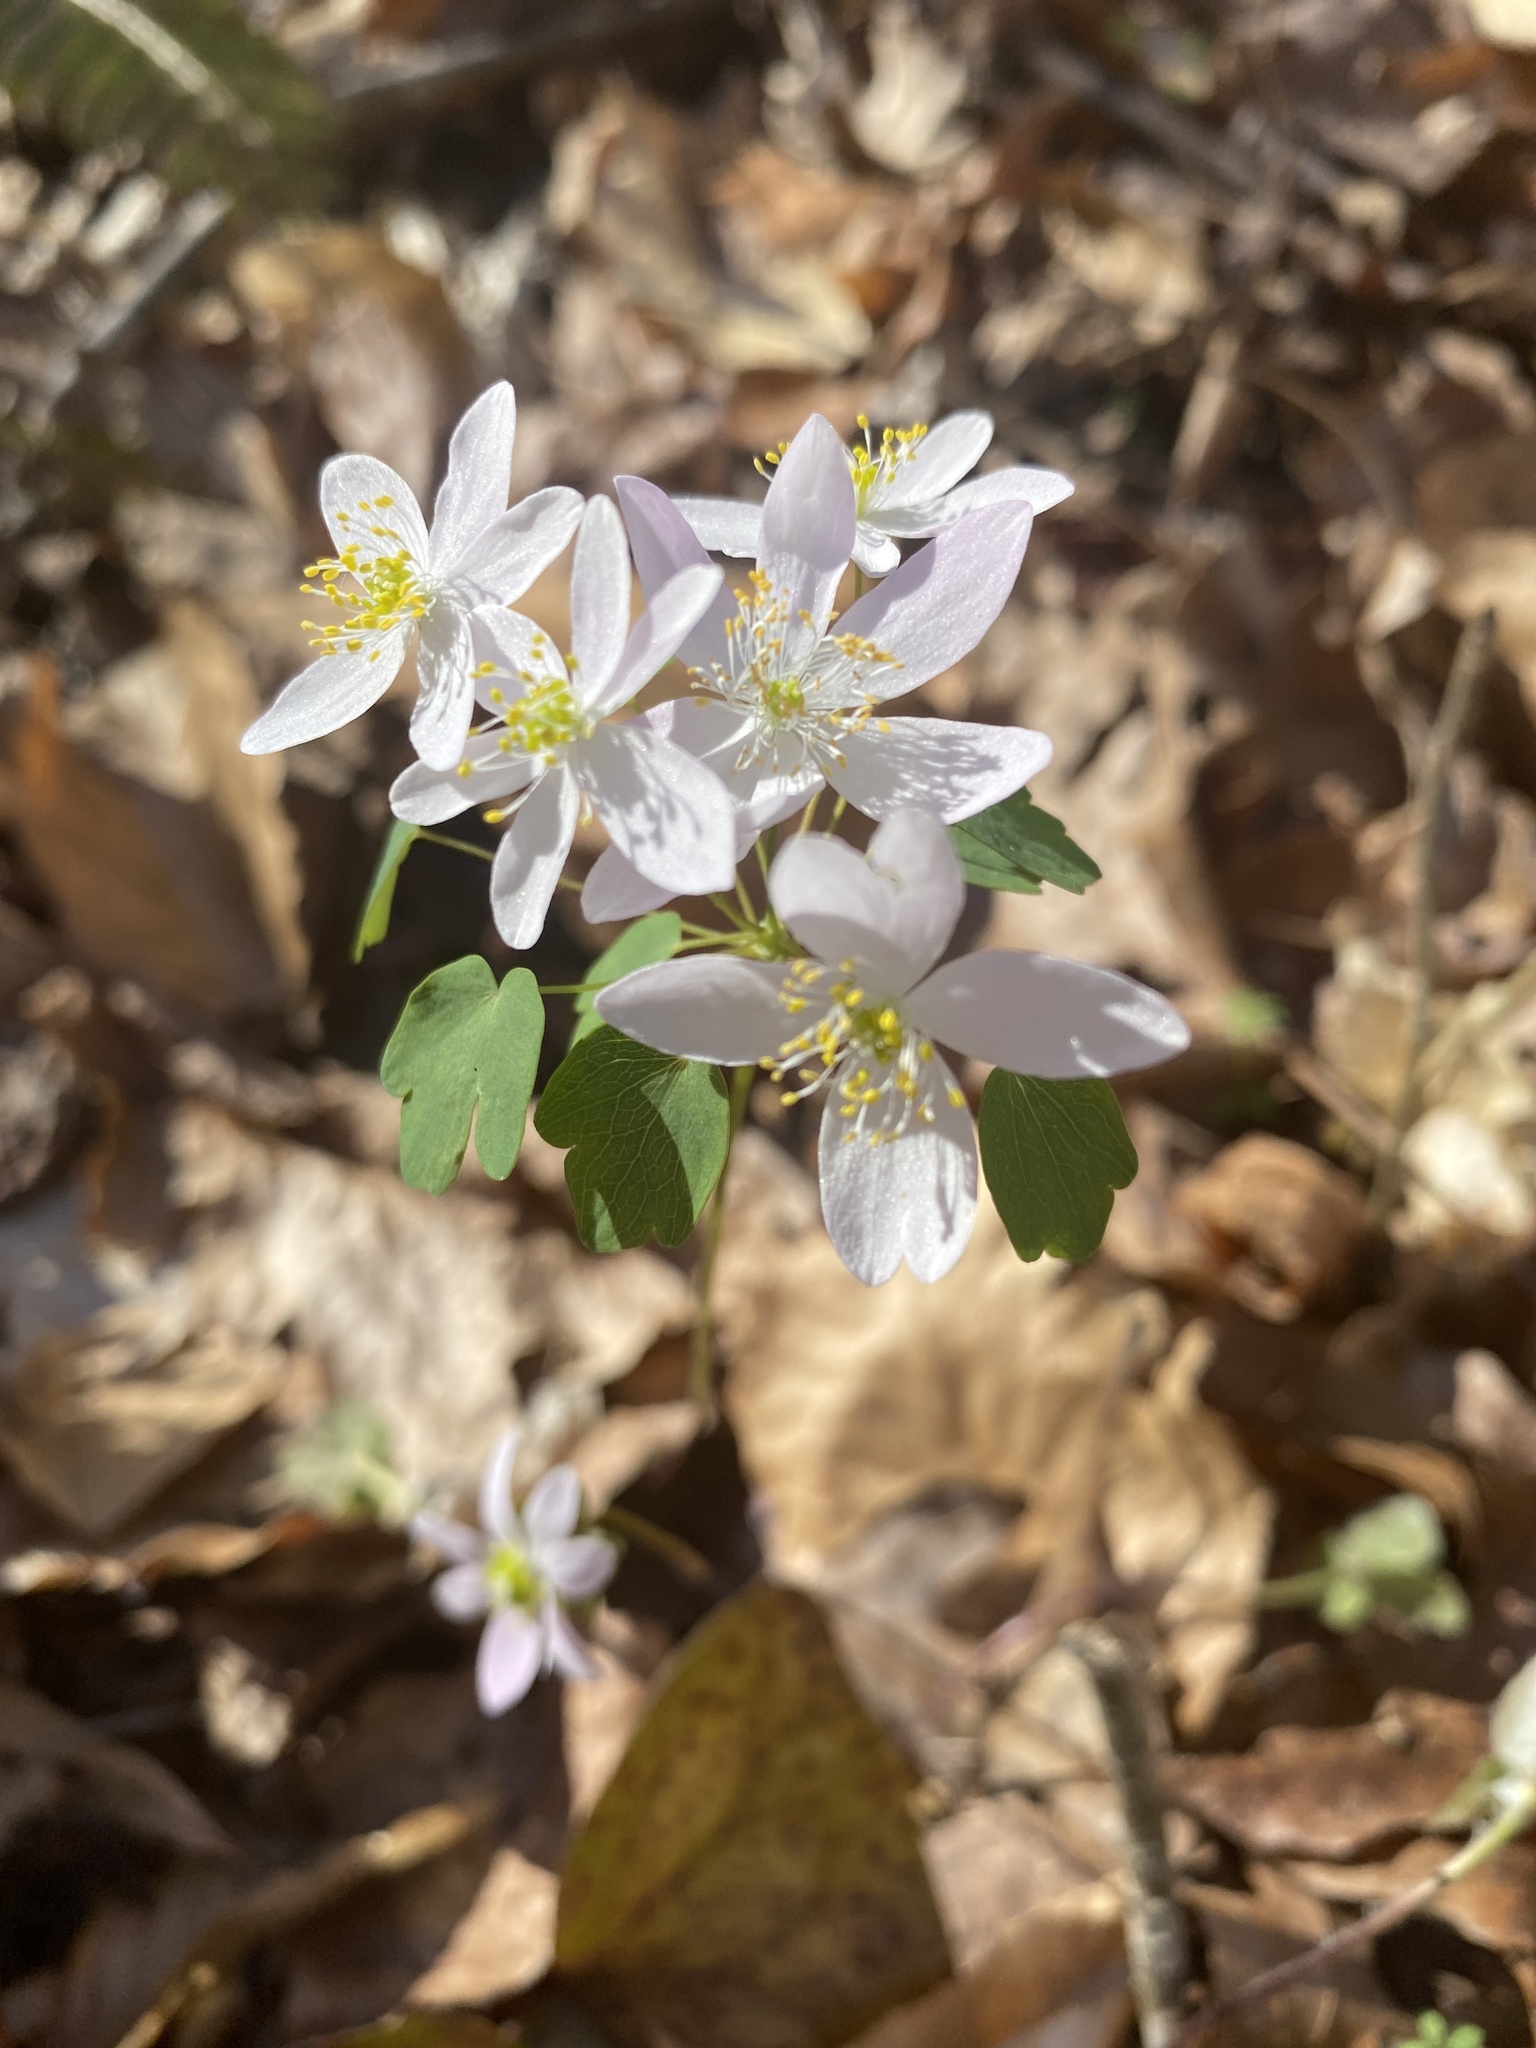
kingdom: Plantae
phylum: Tracheophyta
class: Magnoliopsida
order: Ranunculales
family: Ranunculaceae
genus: Thalictrum
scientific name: Thalictrum thalictroides
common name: Rue-anemone
